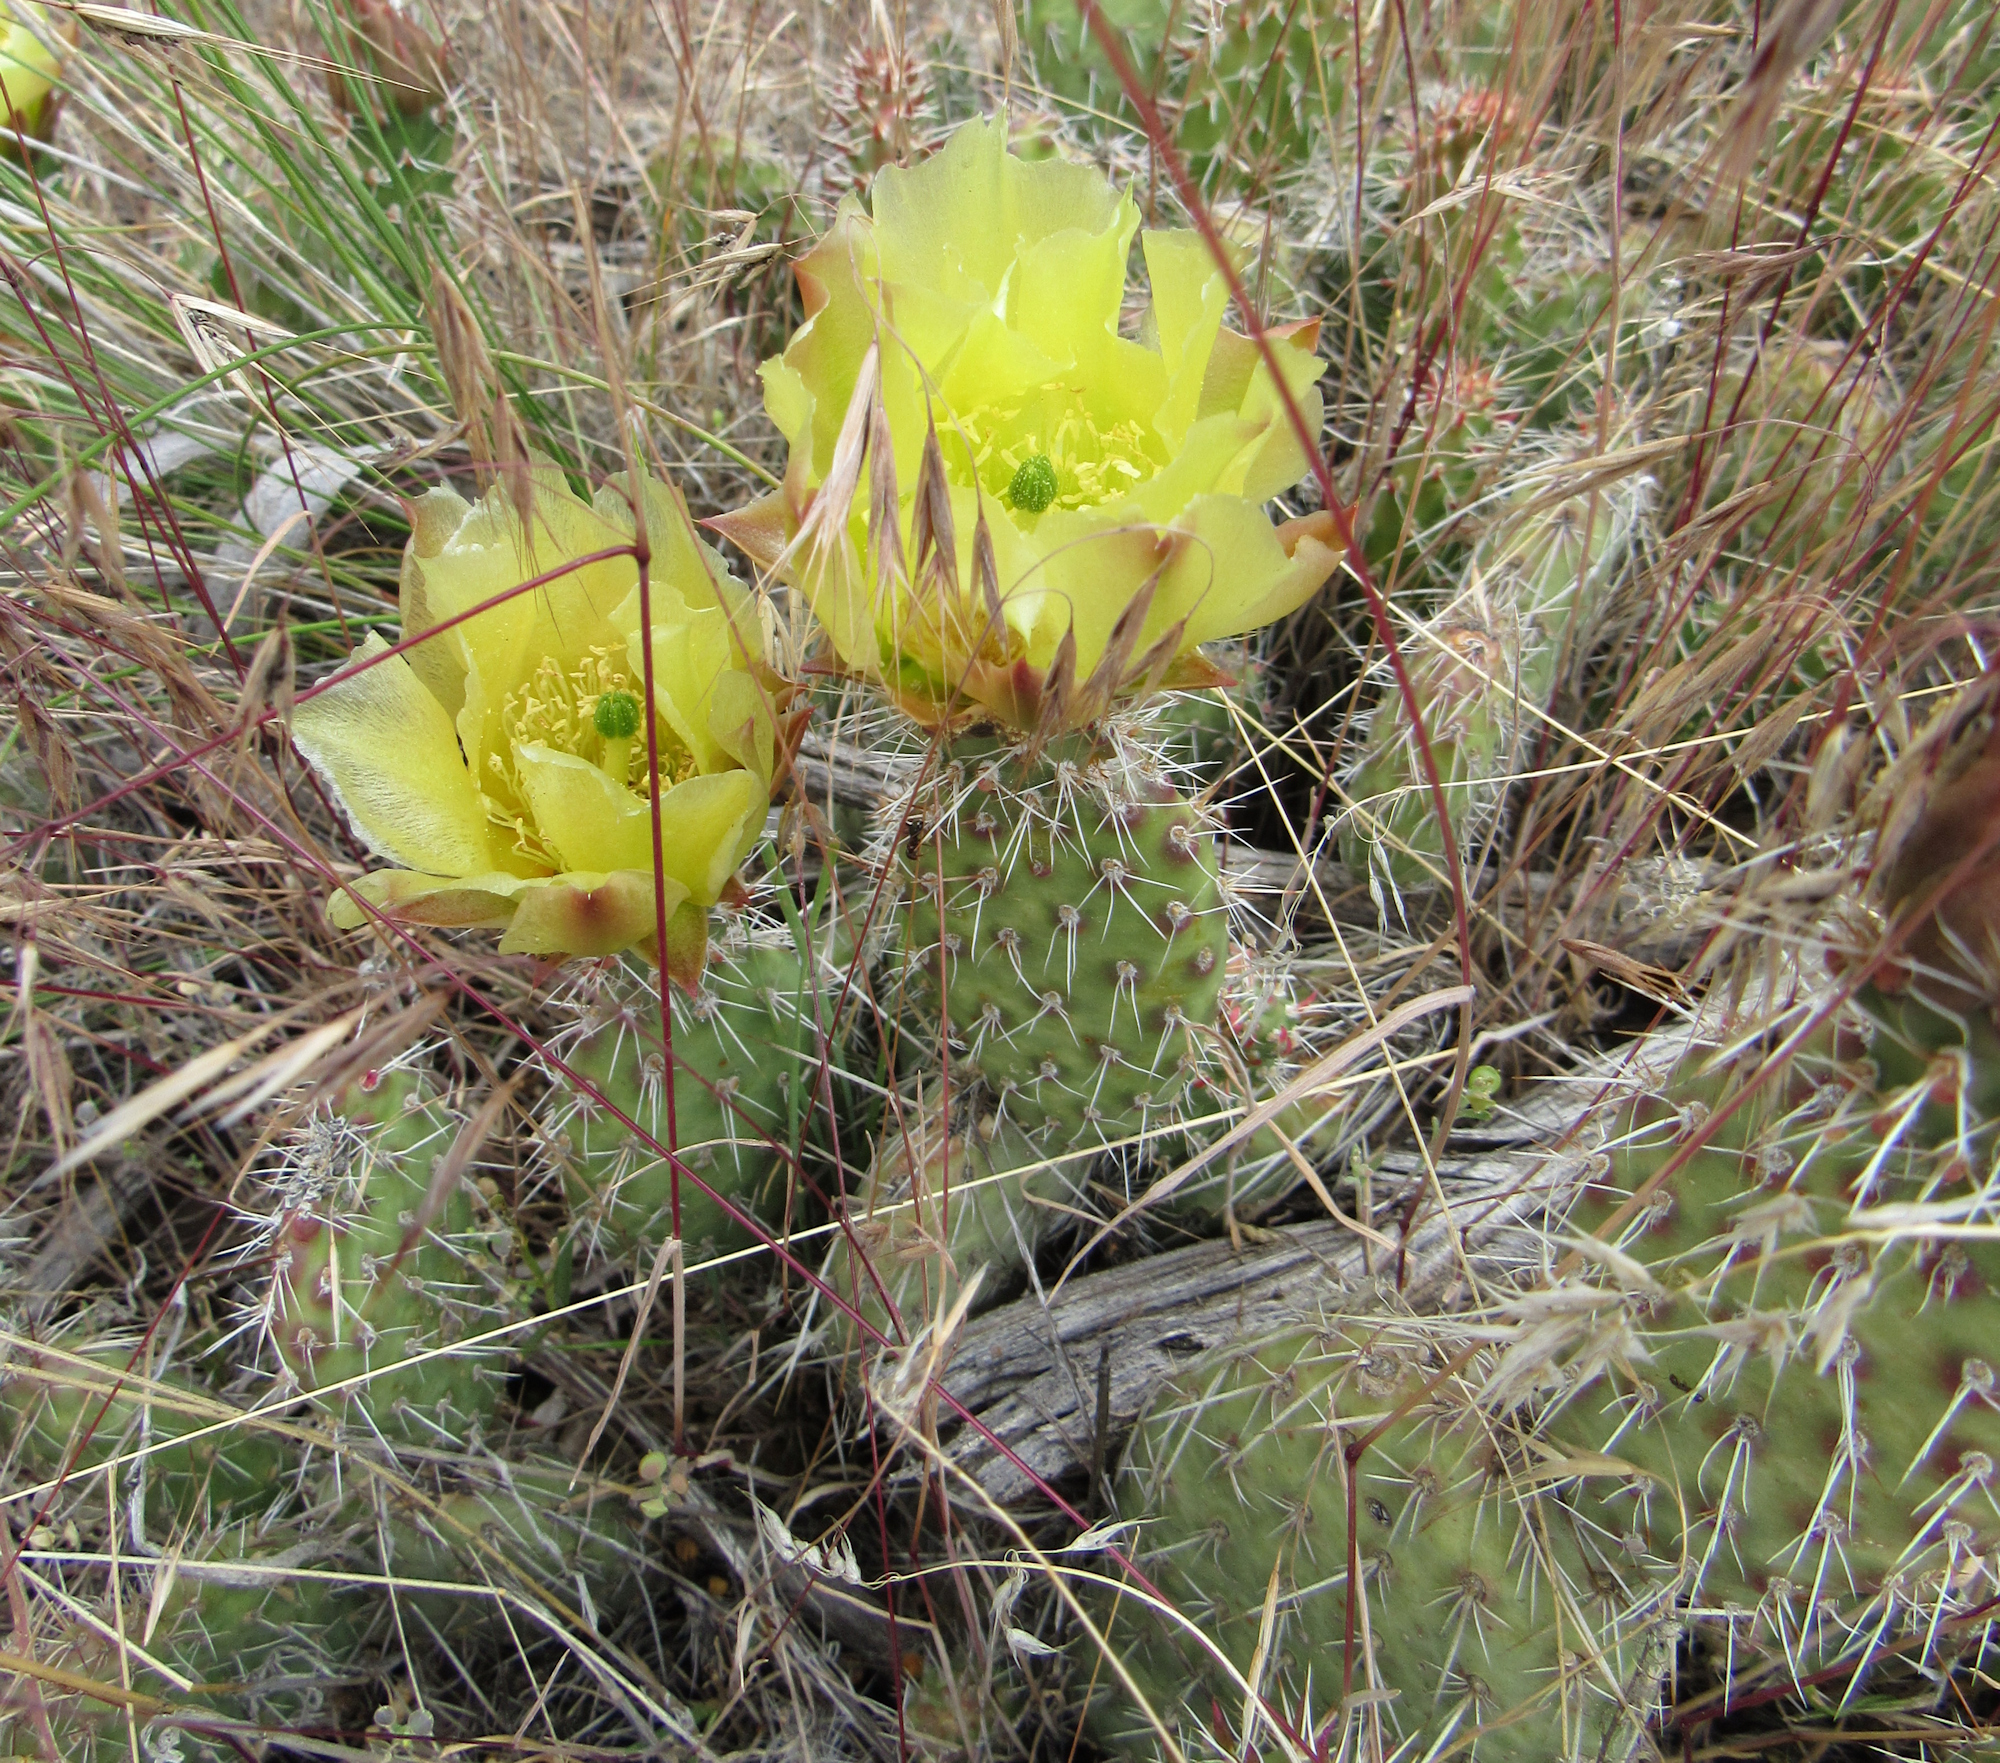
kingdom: Plantae
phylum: Tracheophyta
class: Magnoliopsida
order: Caryophyllales
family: Cactaceae
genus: Opuntia
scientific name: Opuntia polyacantha
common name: Plains prickly-pear
